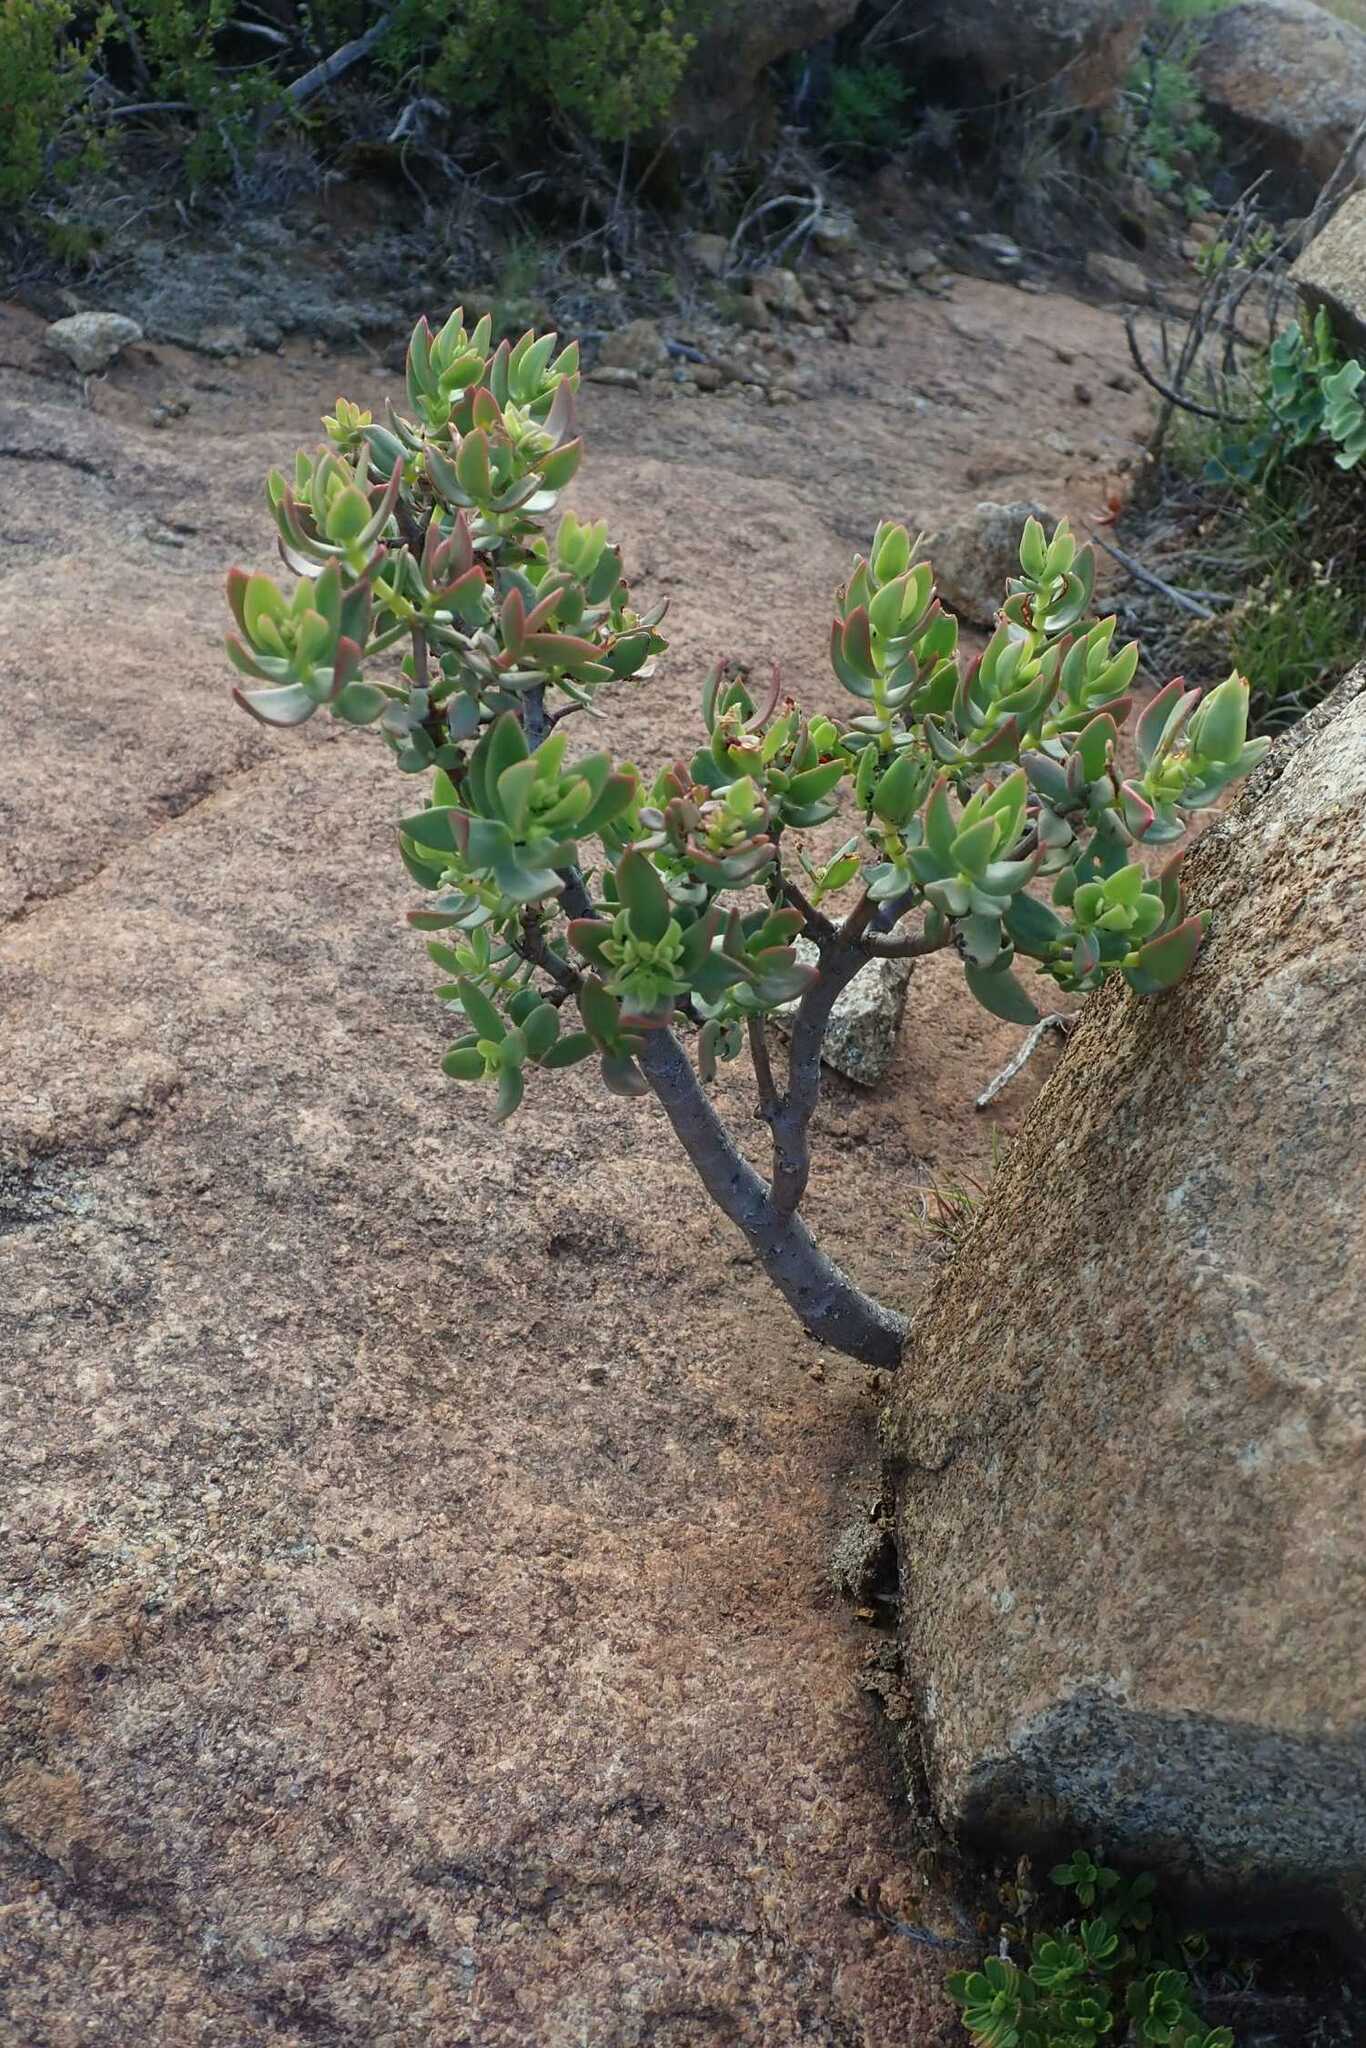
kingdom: Plantae
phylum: Tracheophyta
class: Magnoliopsida
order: Saxifragales
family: Crassulaceae
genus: Crassula
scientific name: Crassula sarcocaulis
